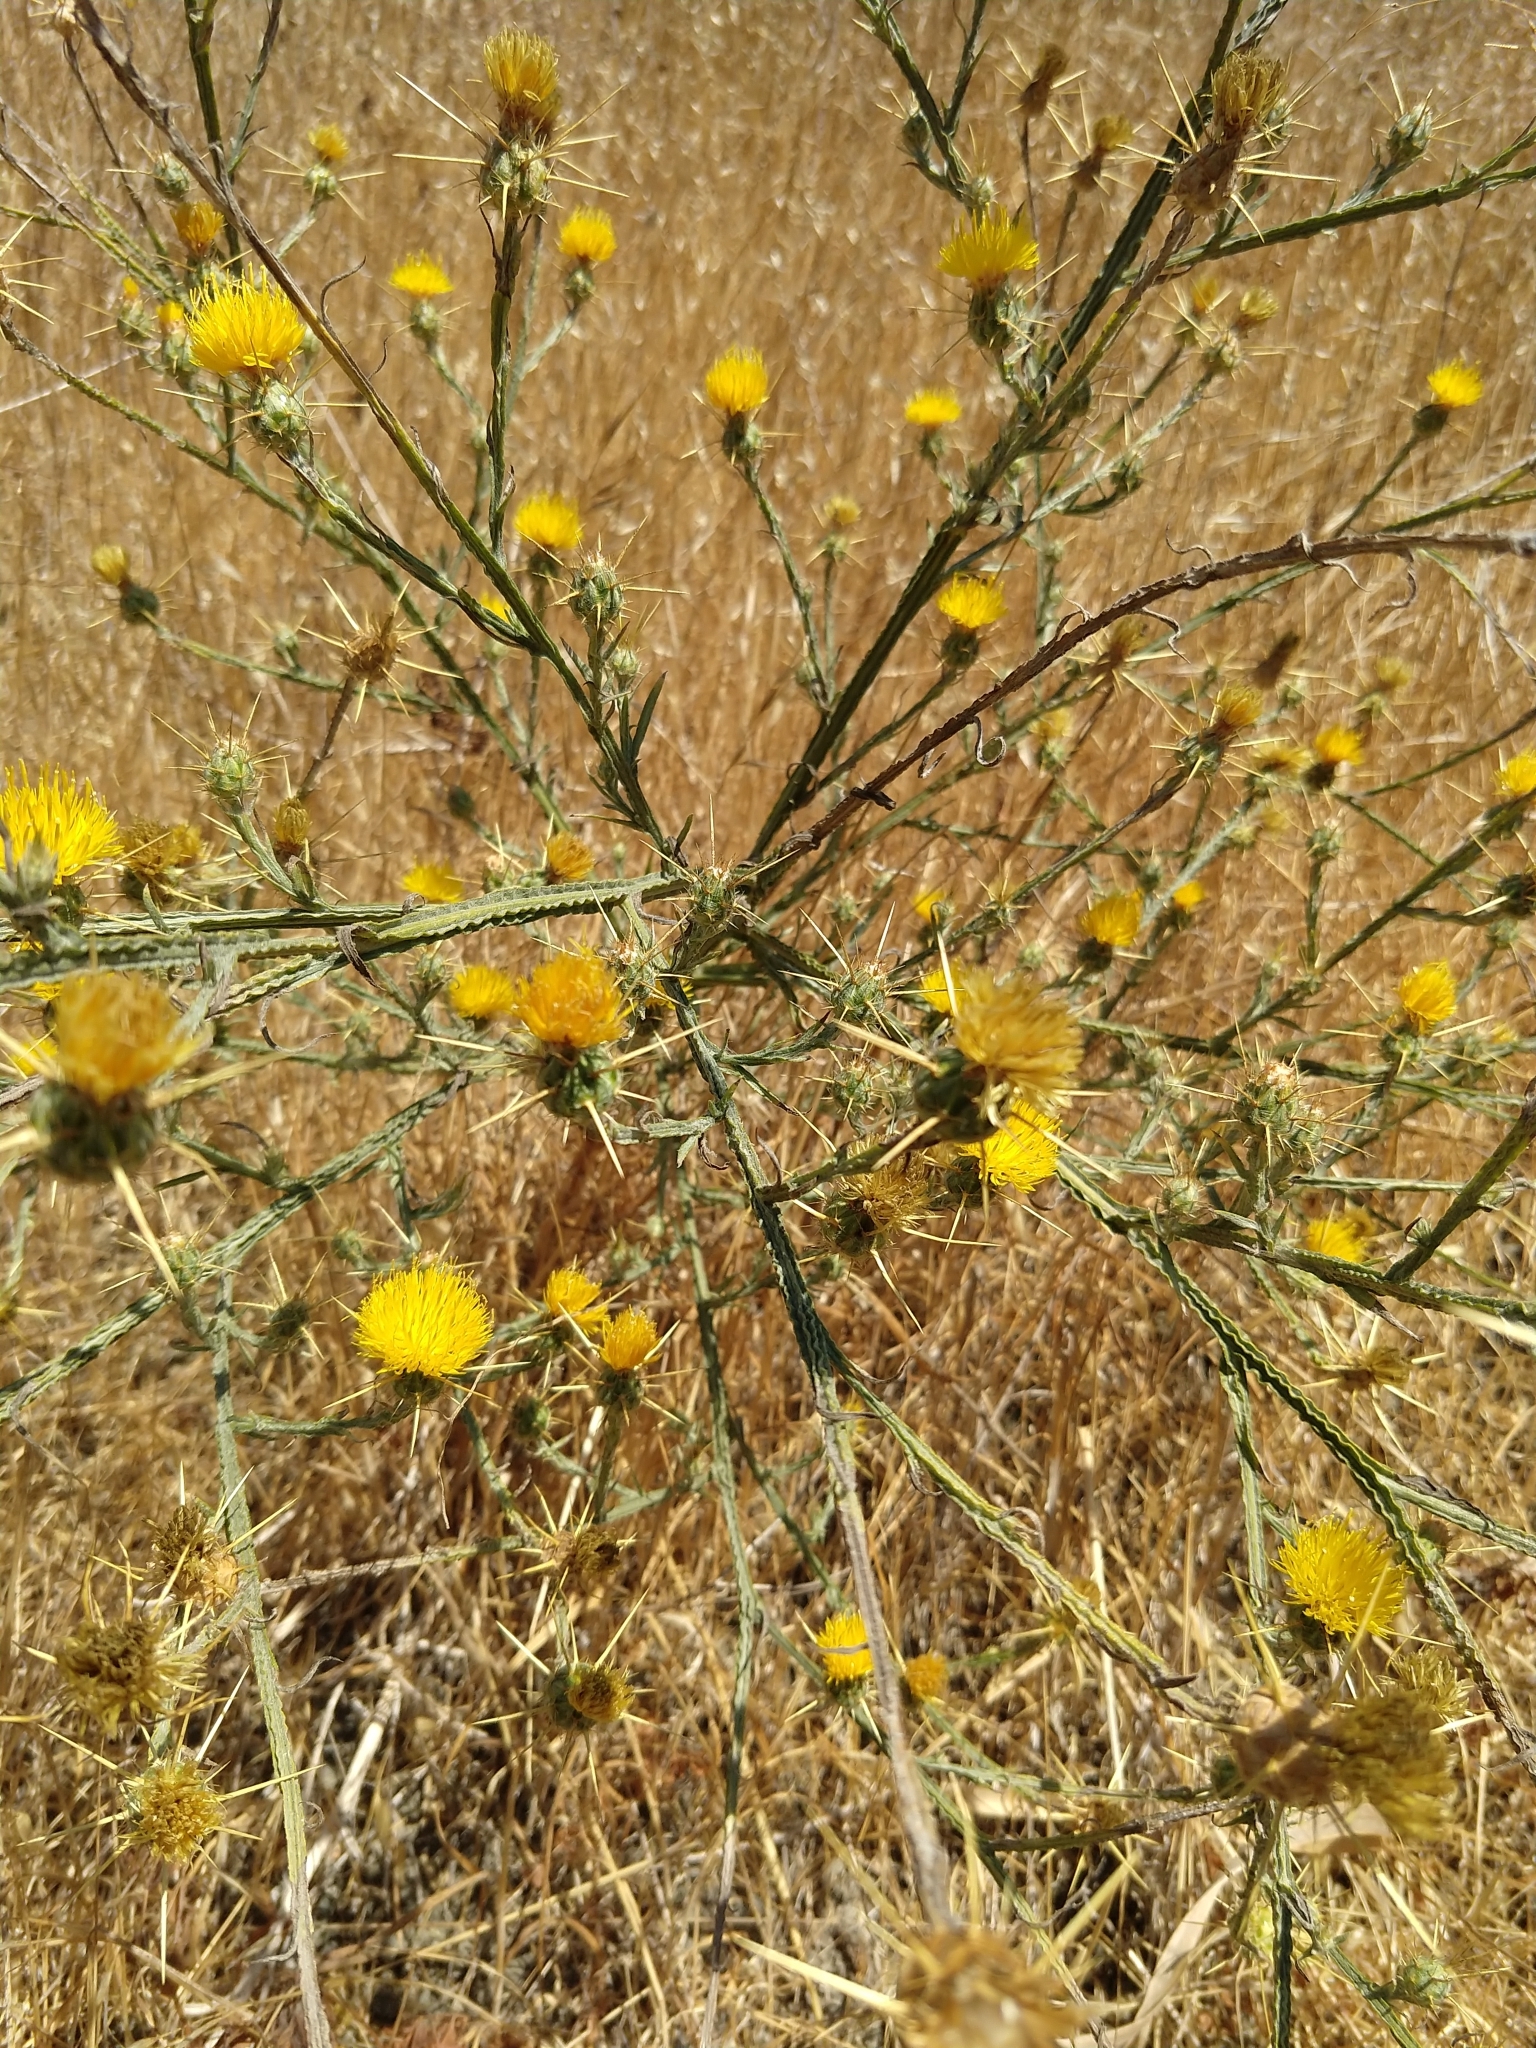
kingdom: Plantae
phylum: Tracheophyta
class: Magnoliopsida
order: Asterales
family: Asteraceae
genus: Centaurea
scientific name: Centaurea solstitialis
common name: Yellow star-thistle
